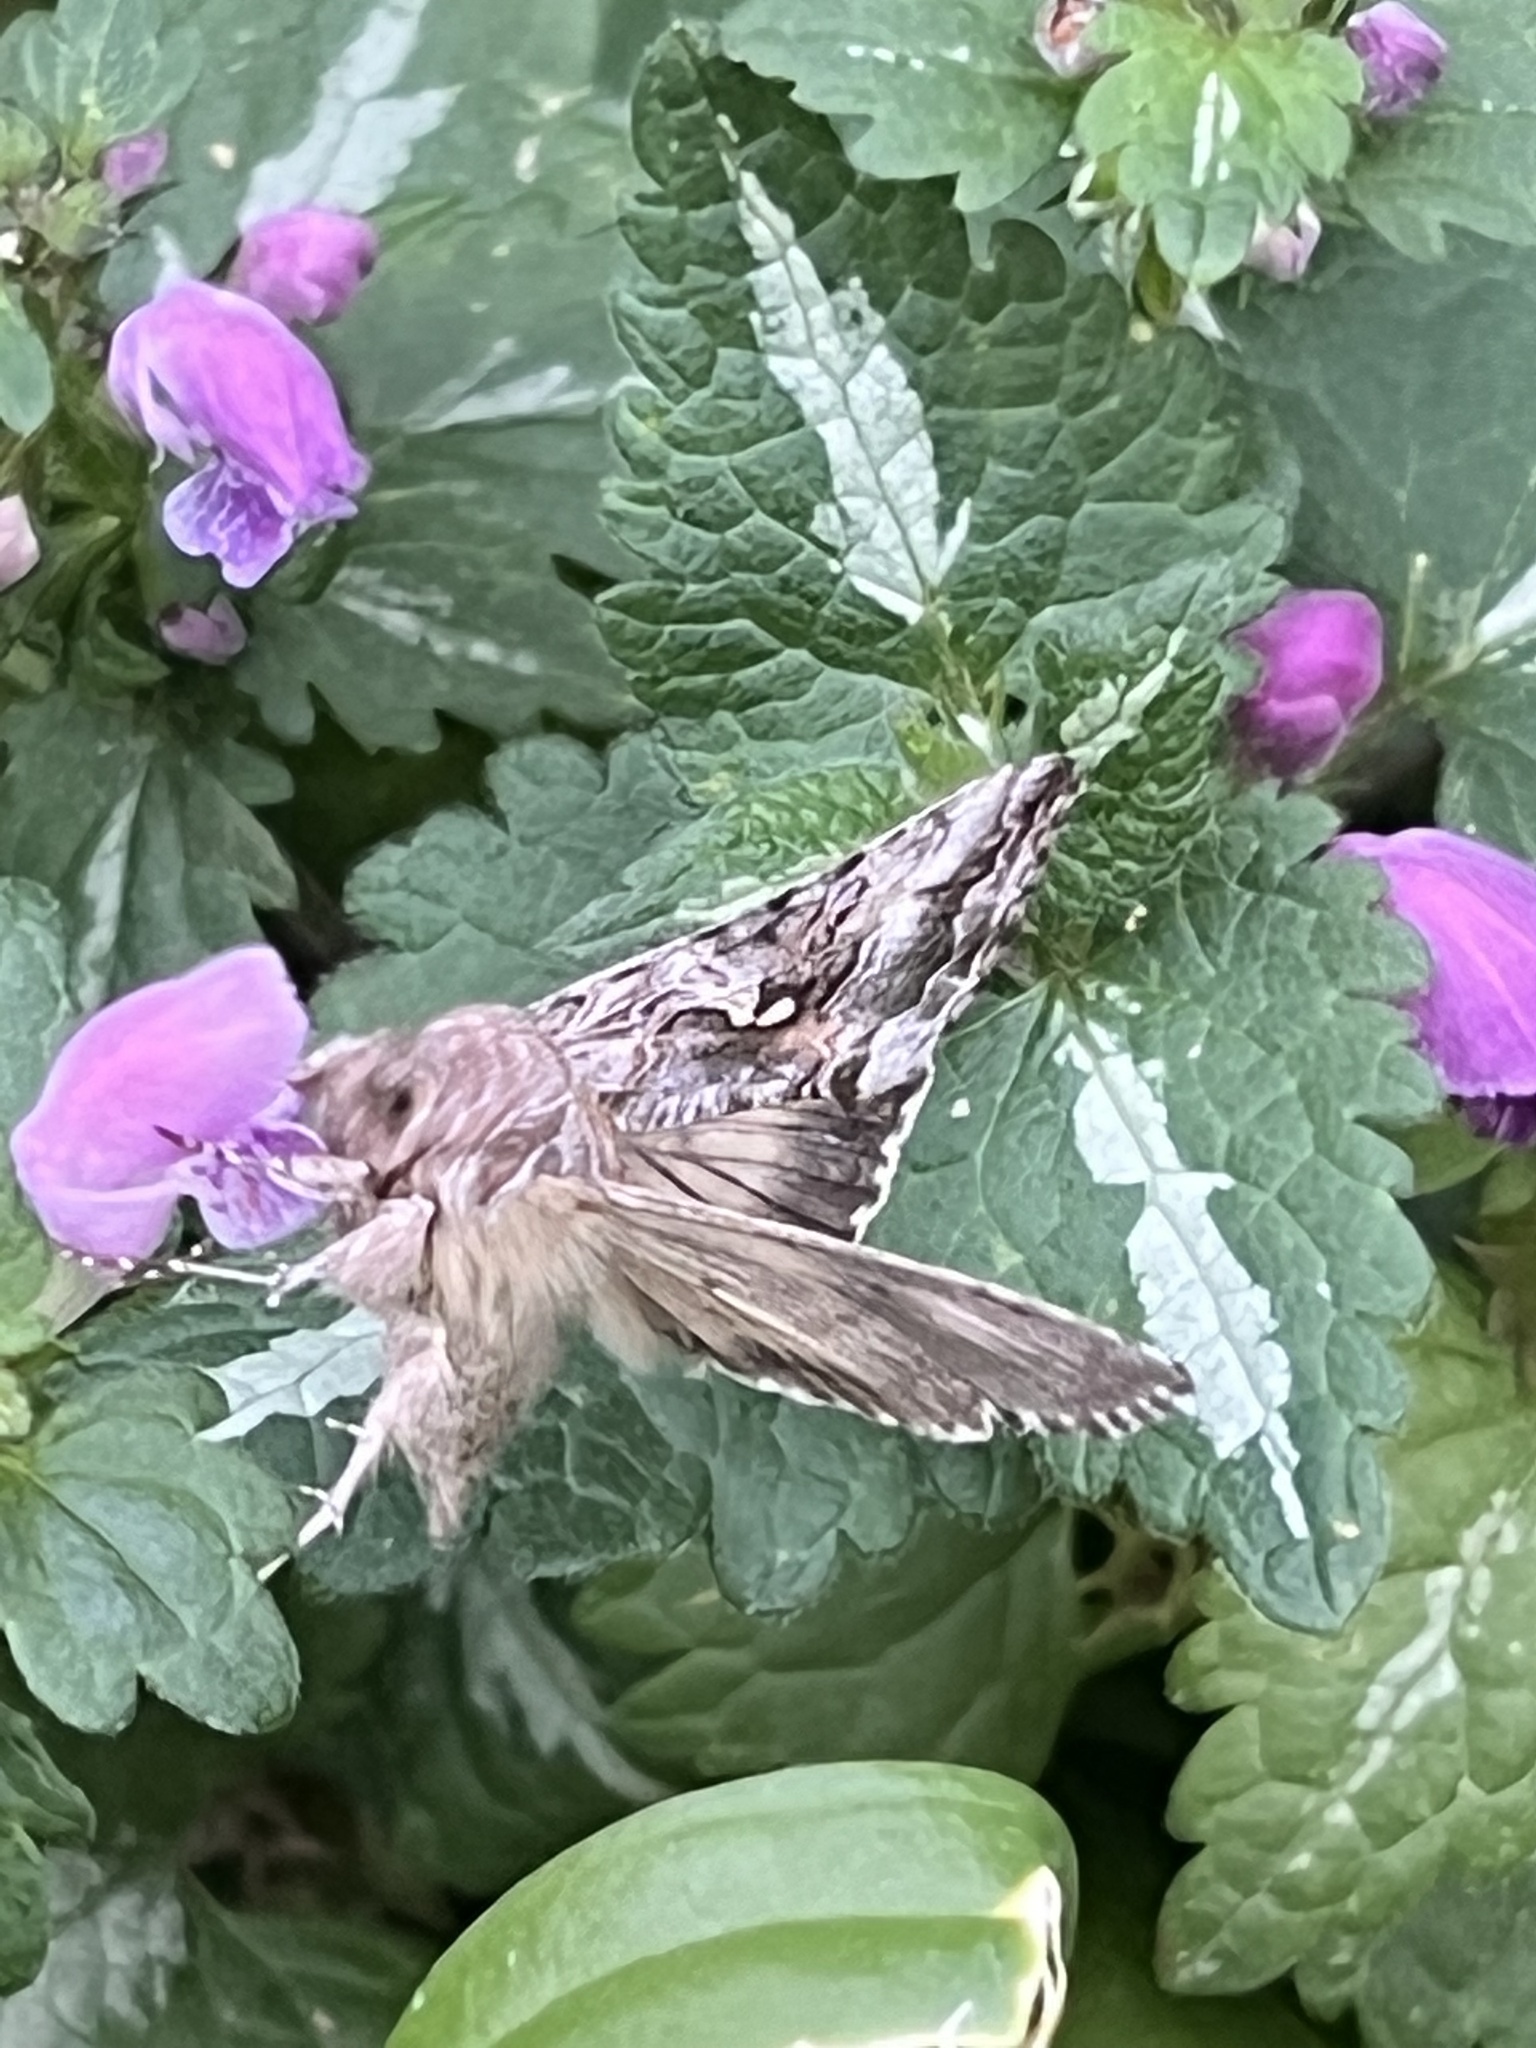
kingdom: Animalia
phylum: Arthropoda
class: Insecta
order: Lepidoptera
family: Noctuidae
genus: Autographa
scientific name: Autographa californica
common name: Alfalfa looper
